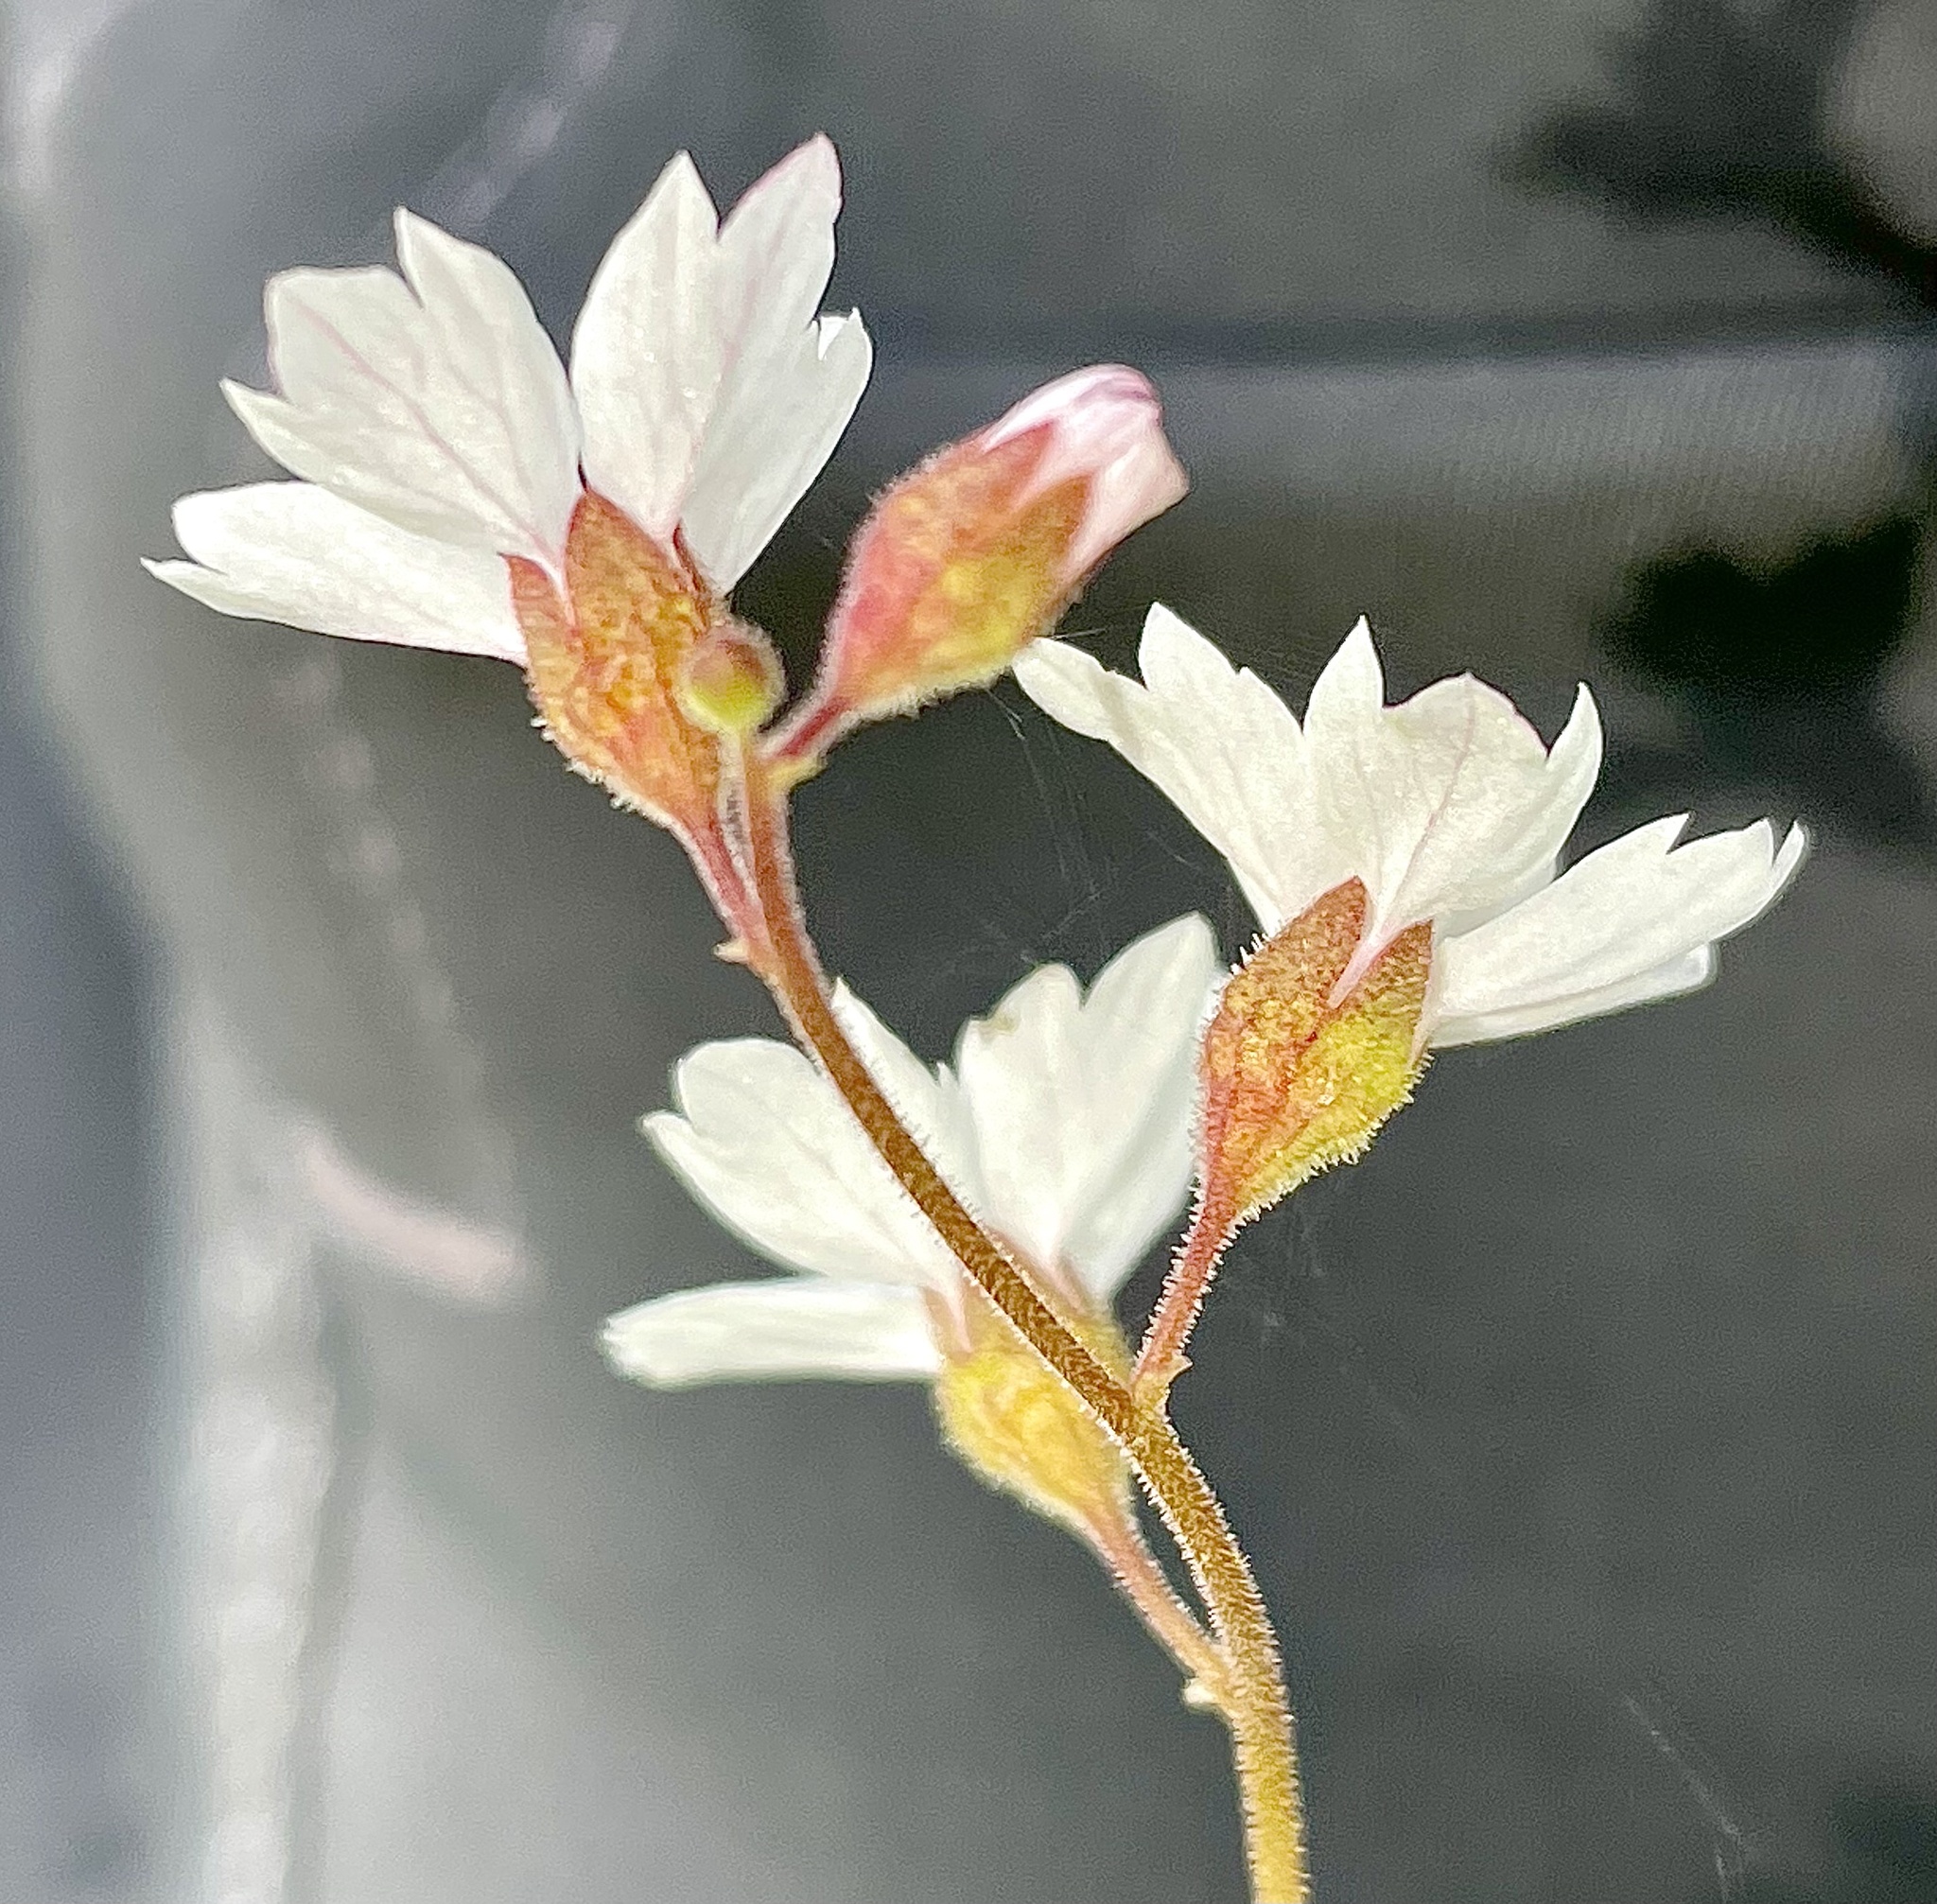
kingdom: Plantae
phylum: Tracheophyta
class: Magnoliopsida
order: Saxifragales
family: Saxifragaceae
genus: Lithophragma
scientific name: Lithophragma affine
